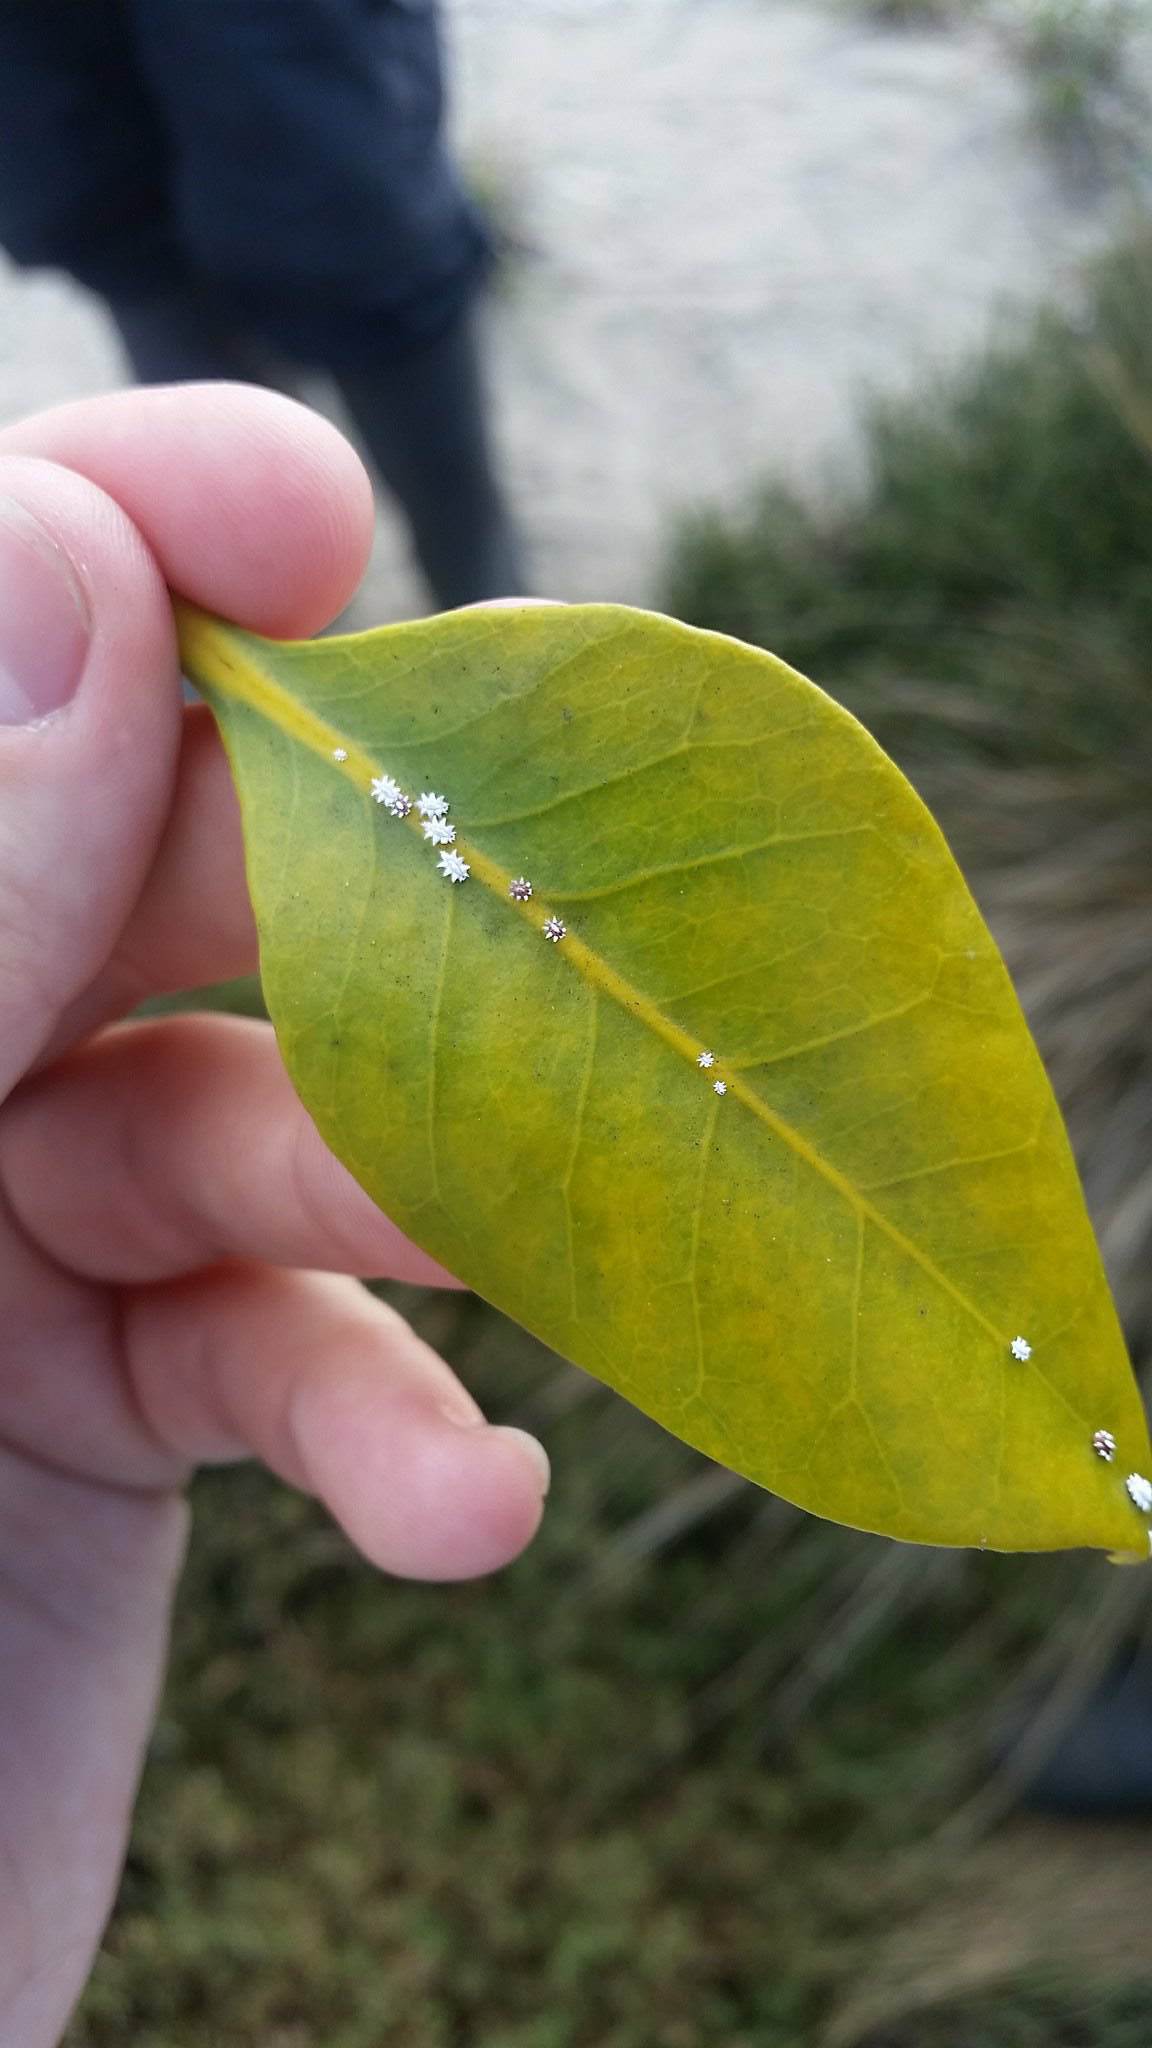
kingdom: Animalia
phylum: Arthropoda
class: Insecta
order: Hemiptera
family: Coccidae
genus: Ceroplastes
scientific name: Ceroplastes sinensis
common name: Hard wax scale
